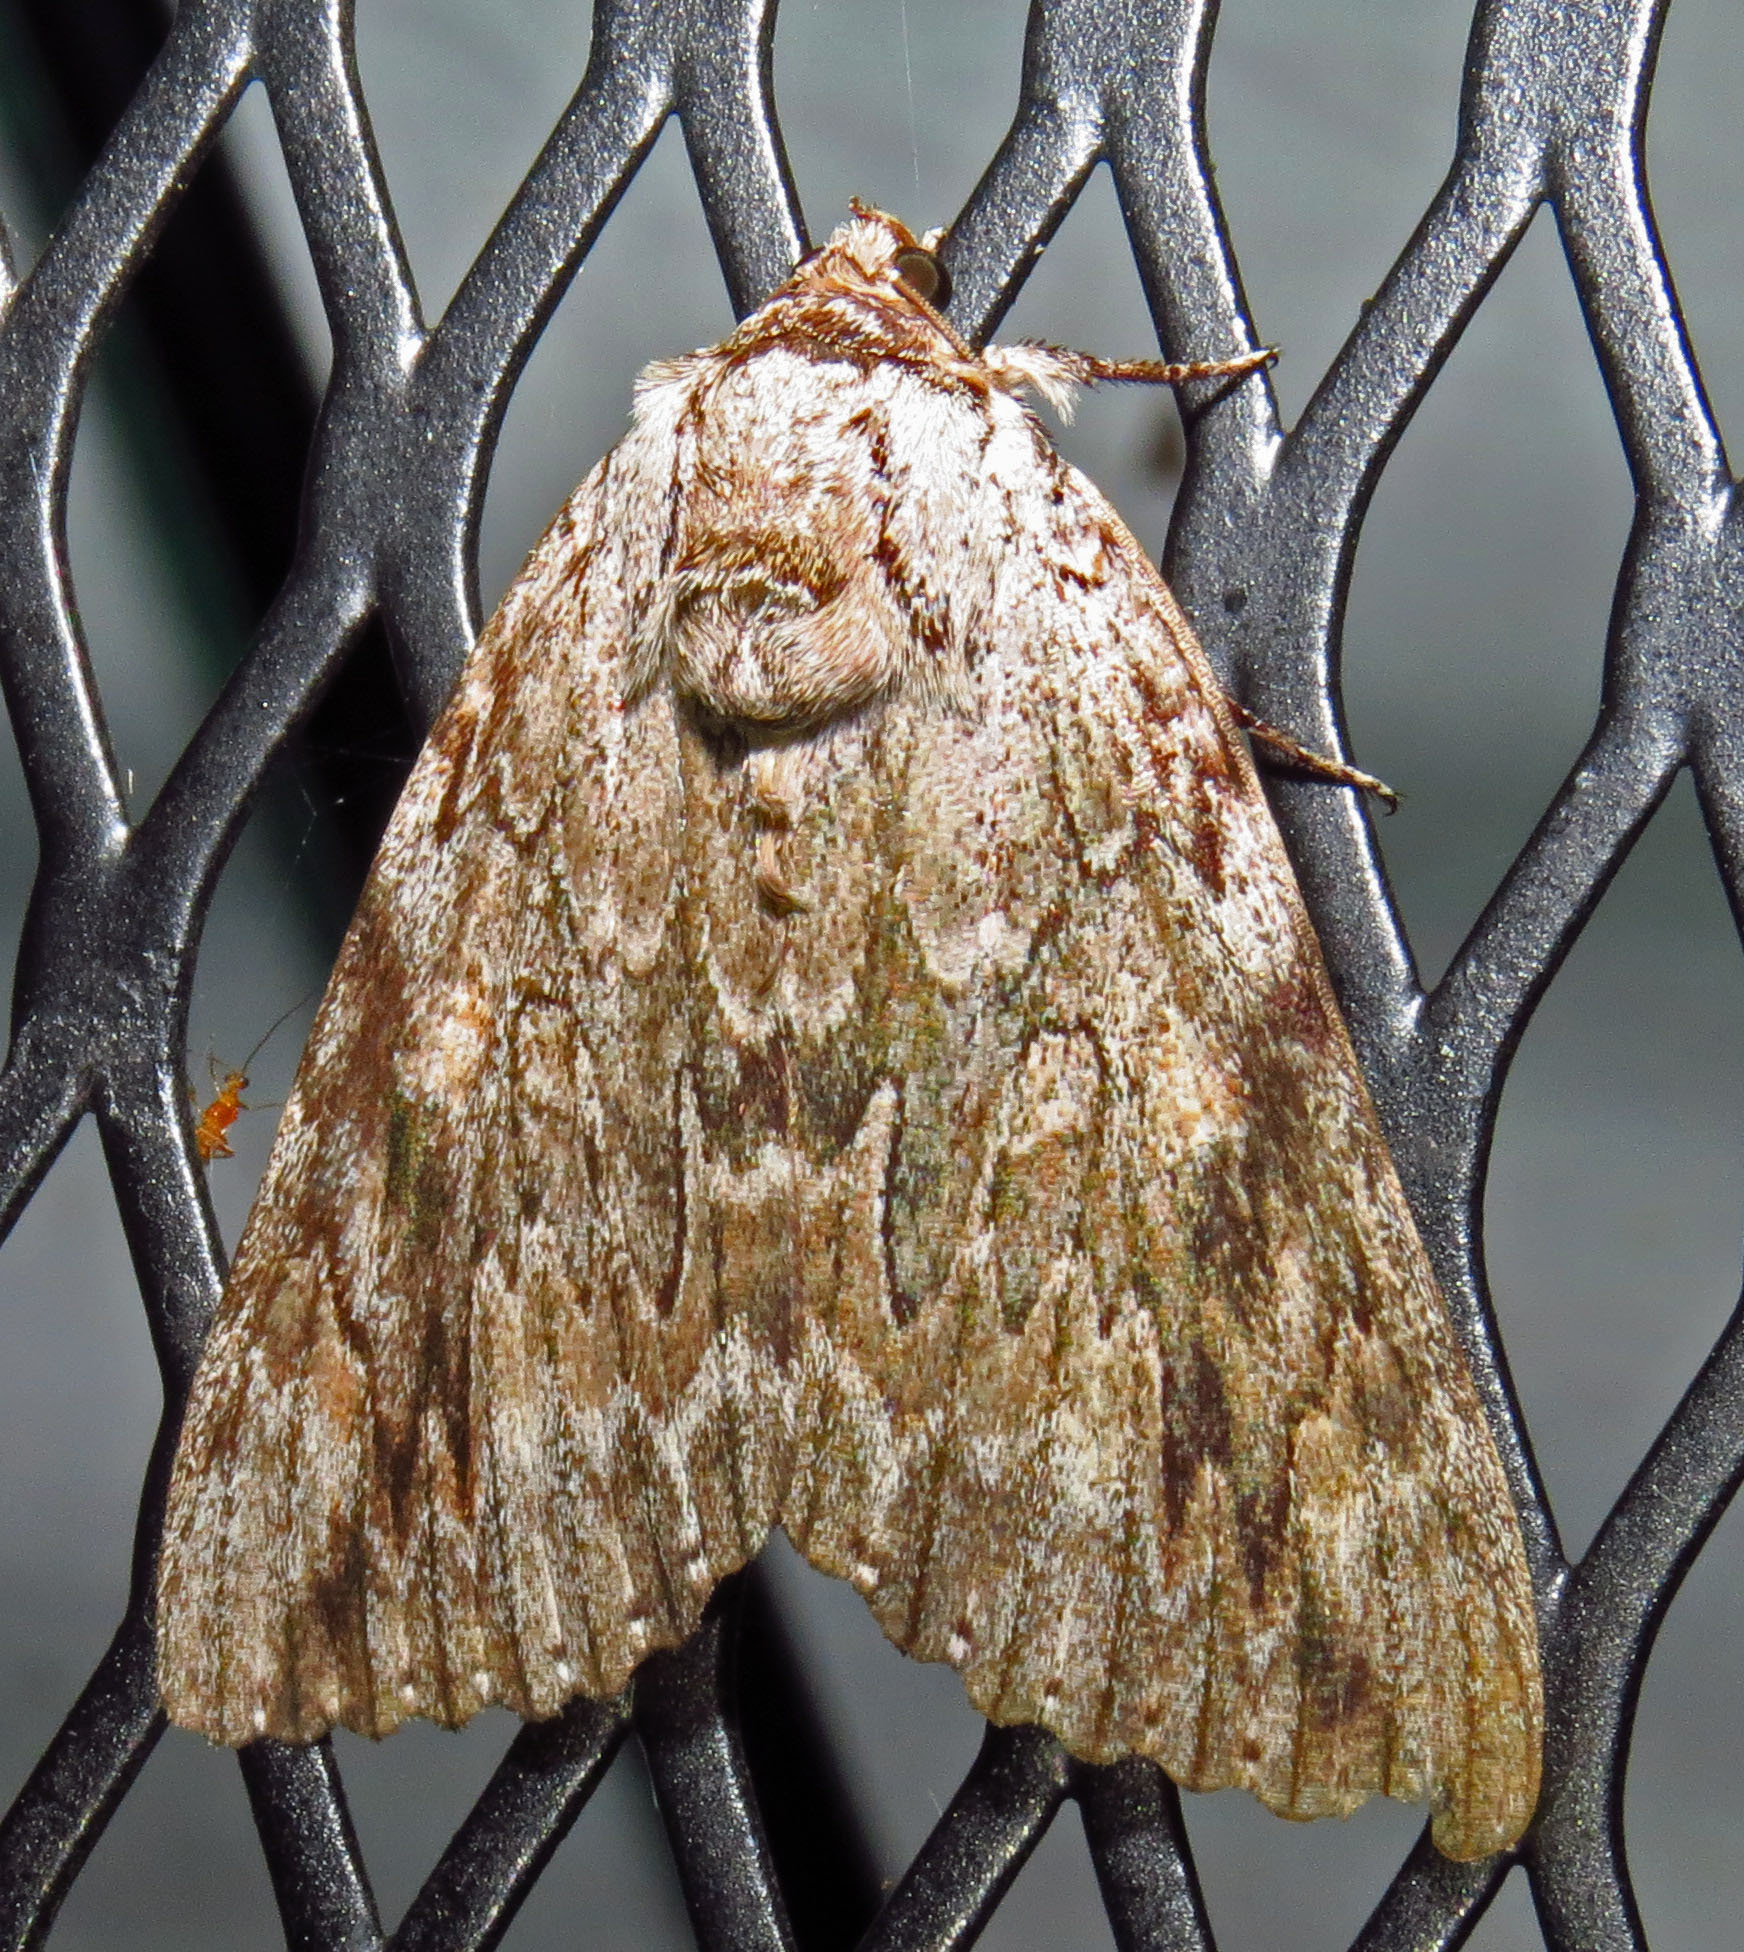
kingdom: Animalia
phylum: Arthropoda
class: Insecta
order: Lepidoptera
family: Erebidae
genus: Catocala
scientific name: Catocala maestosa
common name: Sad underwing
